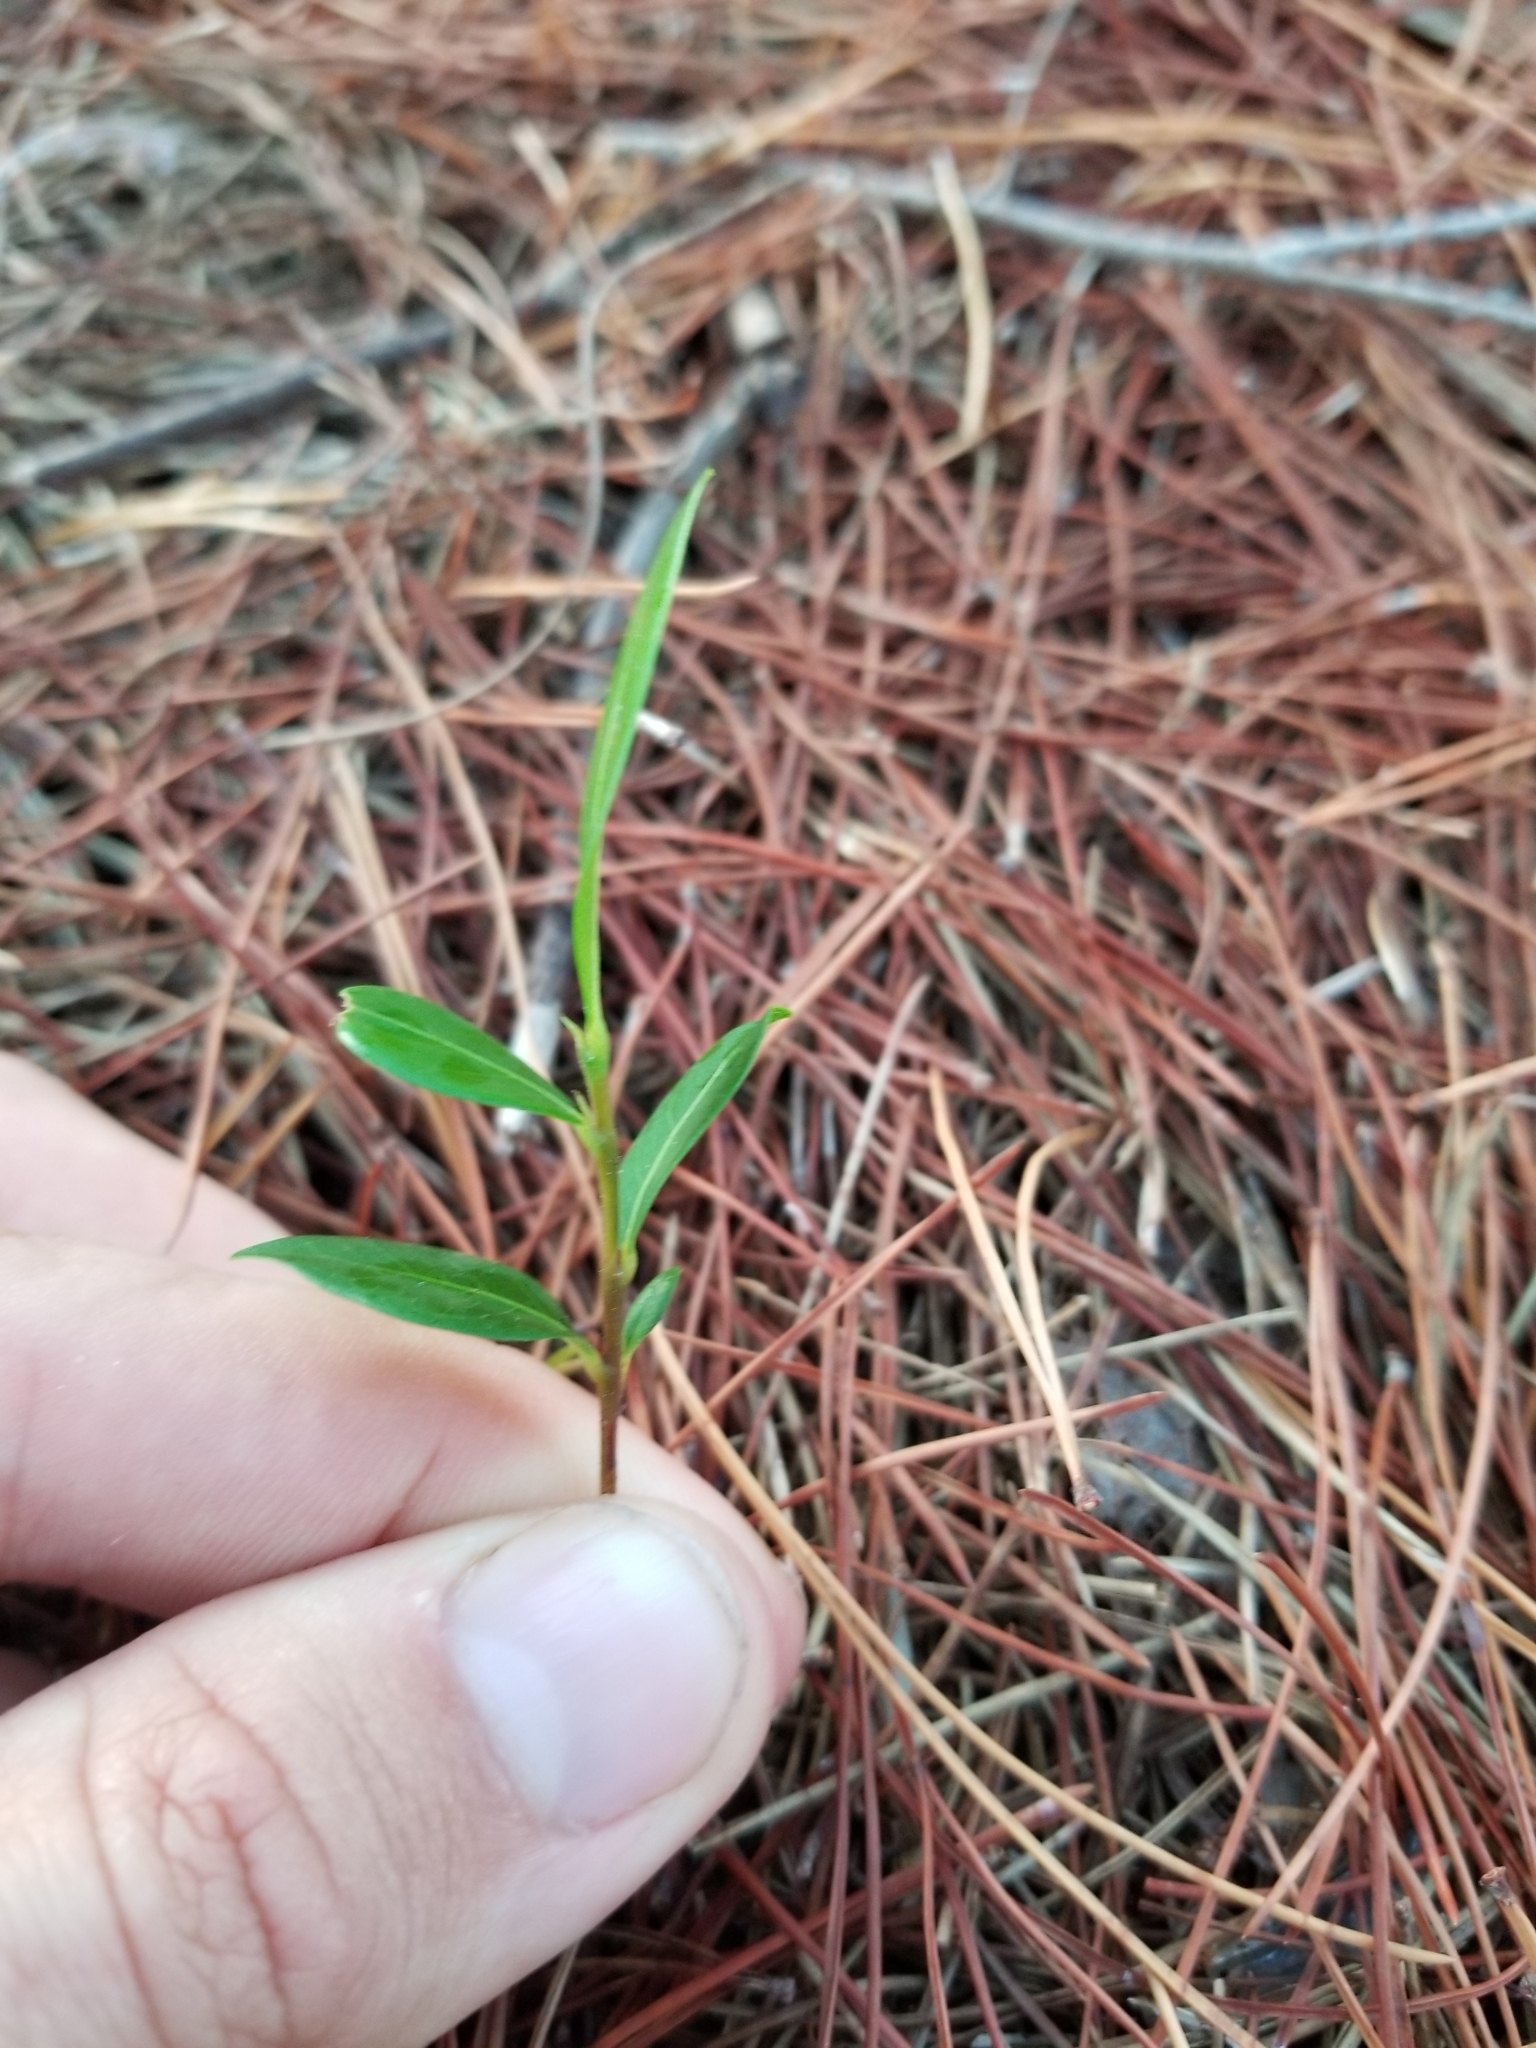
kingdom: Plantae
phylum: Tracheophyta
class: Magnoliopsida
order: Malpighiales
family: Chrysobalanaceae
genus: Chrysobalanus
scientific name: Chrysobalanus icaco
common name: Coco plum
